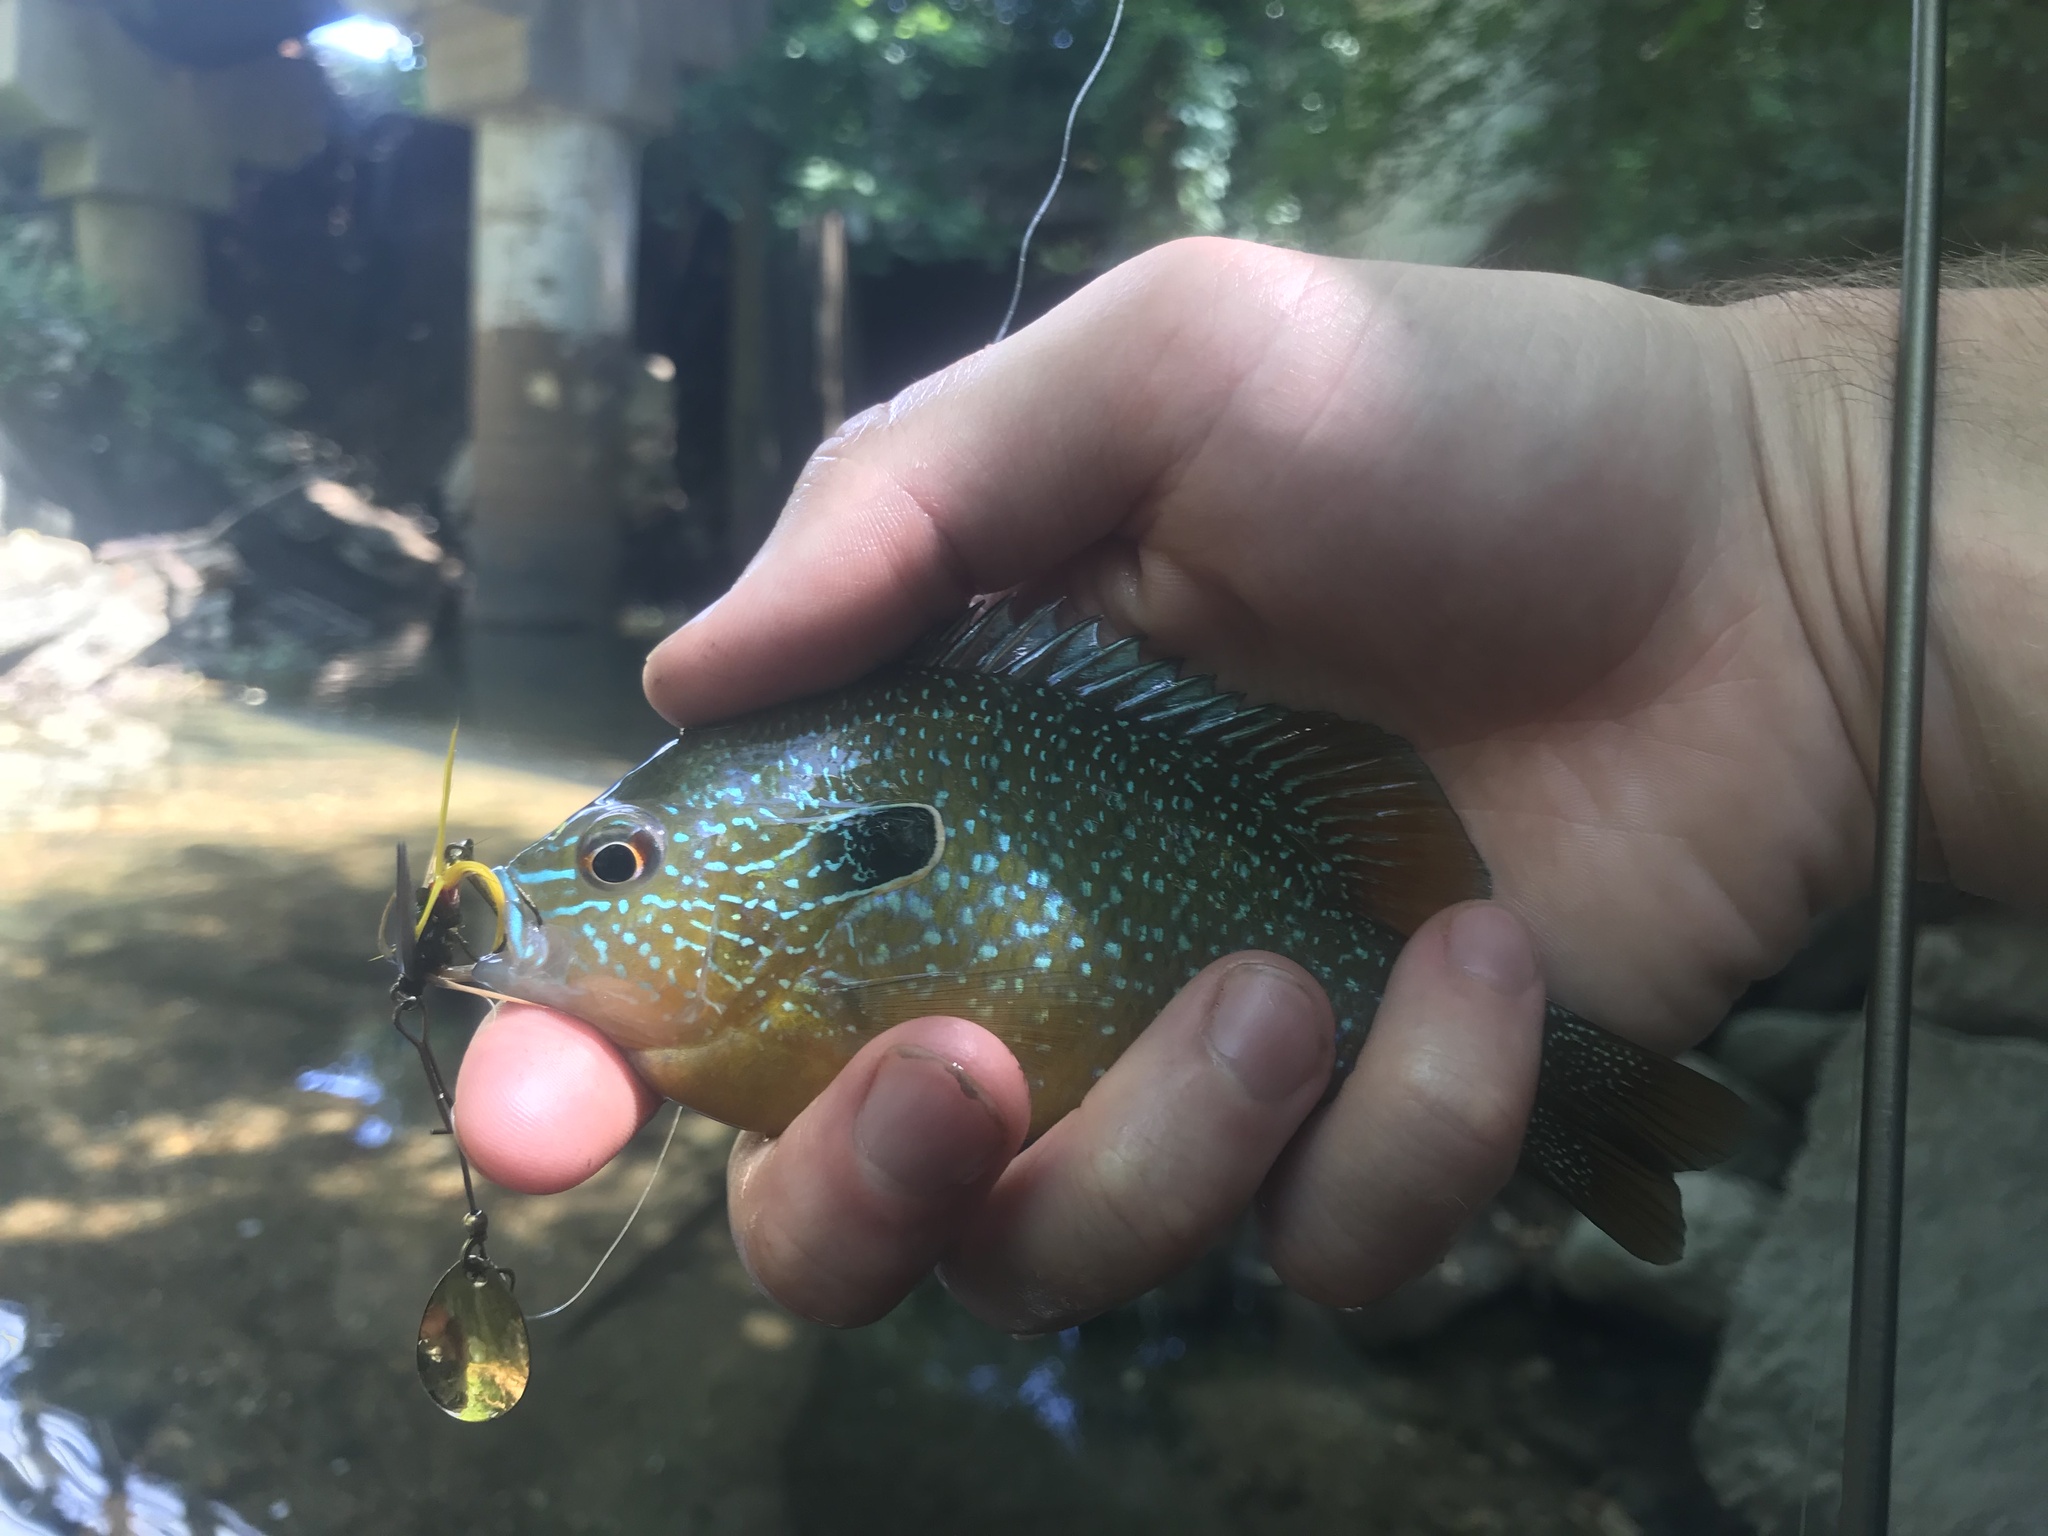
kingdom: Animalia
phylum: Chordata
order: Perciformes
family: Centrarchidae
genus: Lepomis
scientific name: Lepomis megalotis
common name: Longear sunfish
